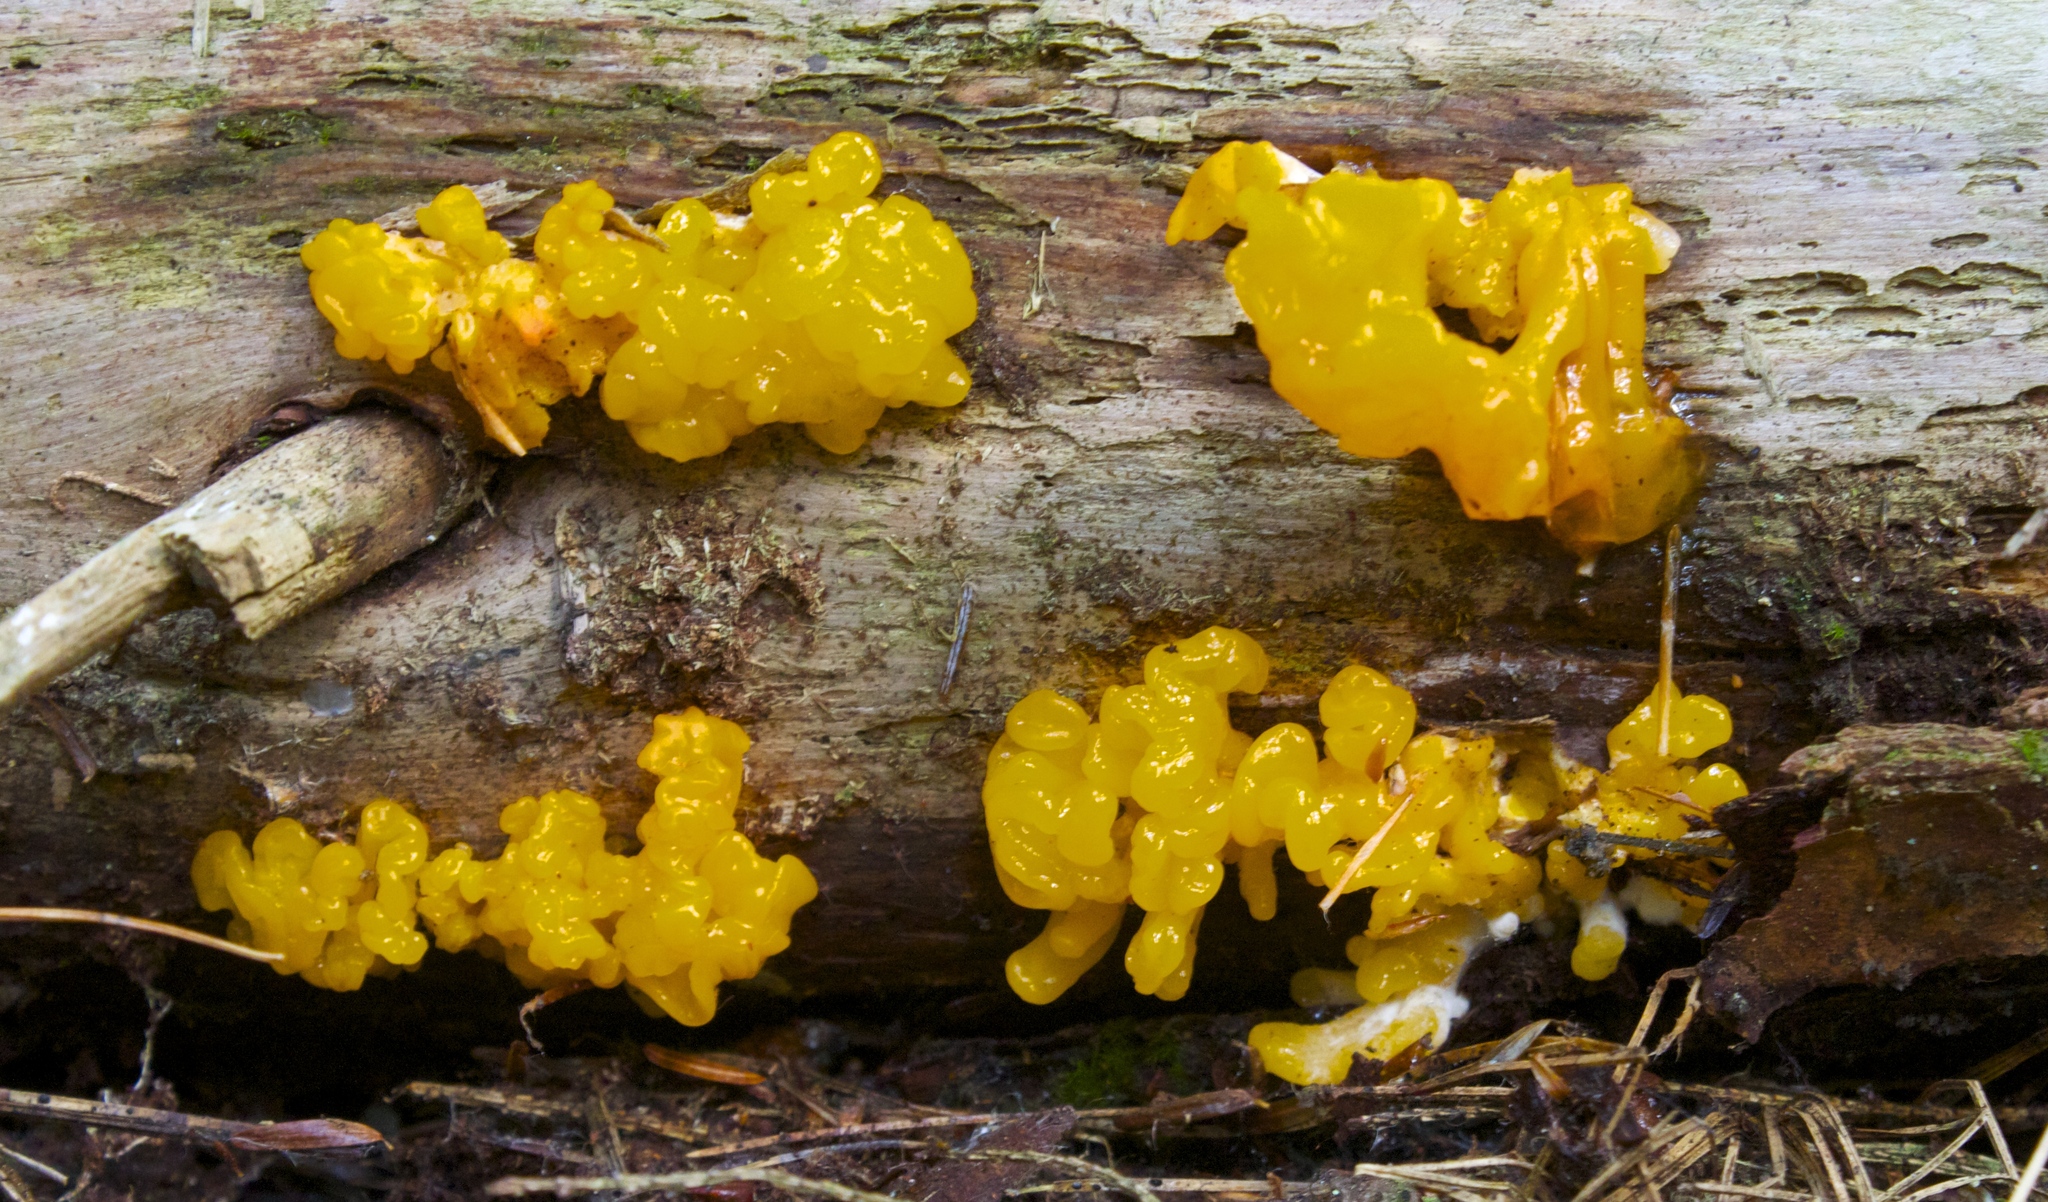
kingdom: Fungi
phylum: Basidiomycota
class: Dacrymycetes
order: Dacrymycetales
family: Dacrymycetaceae
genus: Dacrymyces
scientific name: Dacrymyces chrysospermus
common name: Orange jelly spot
